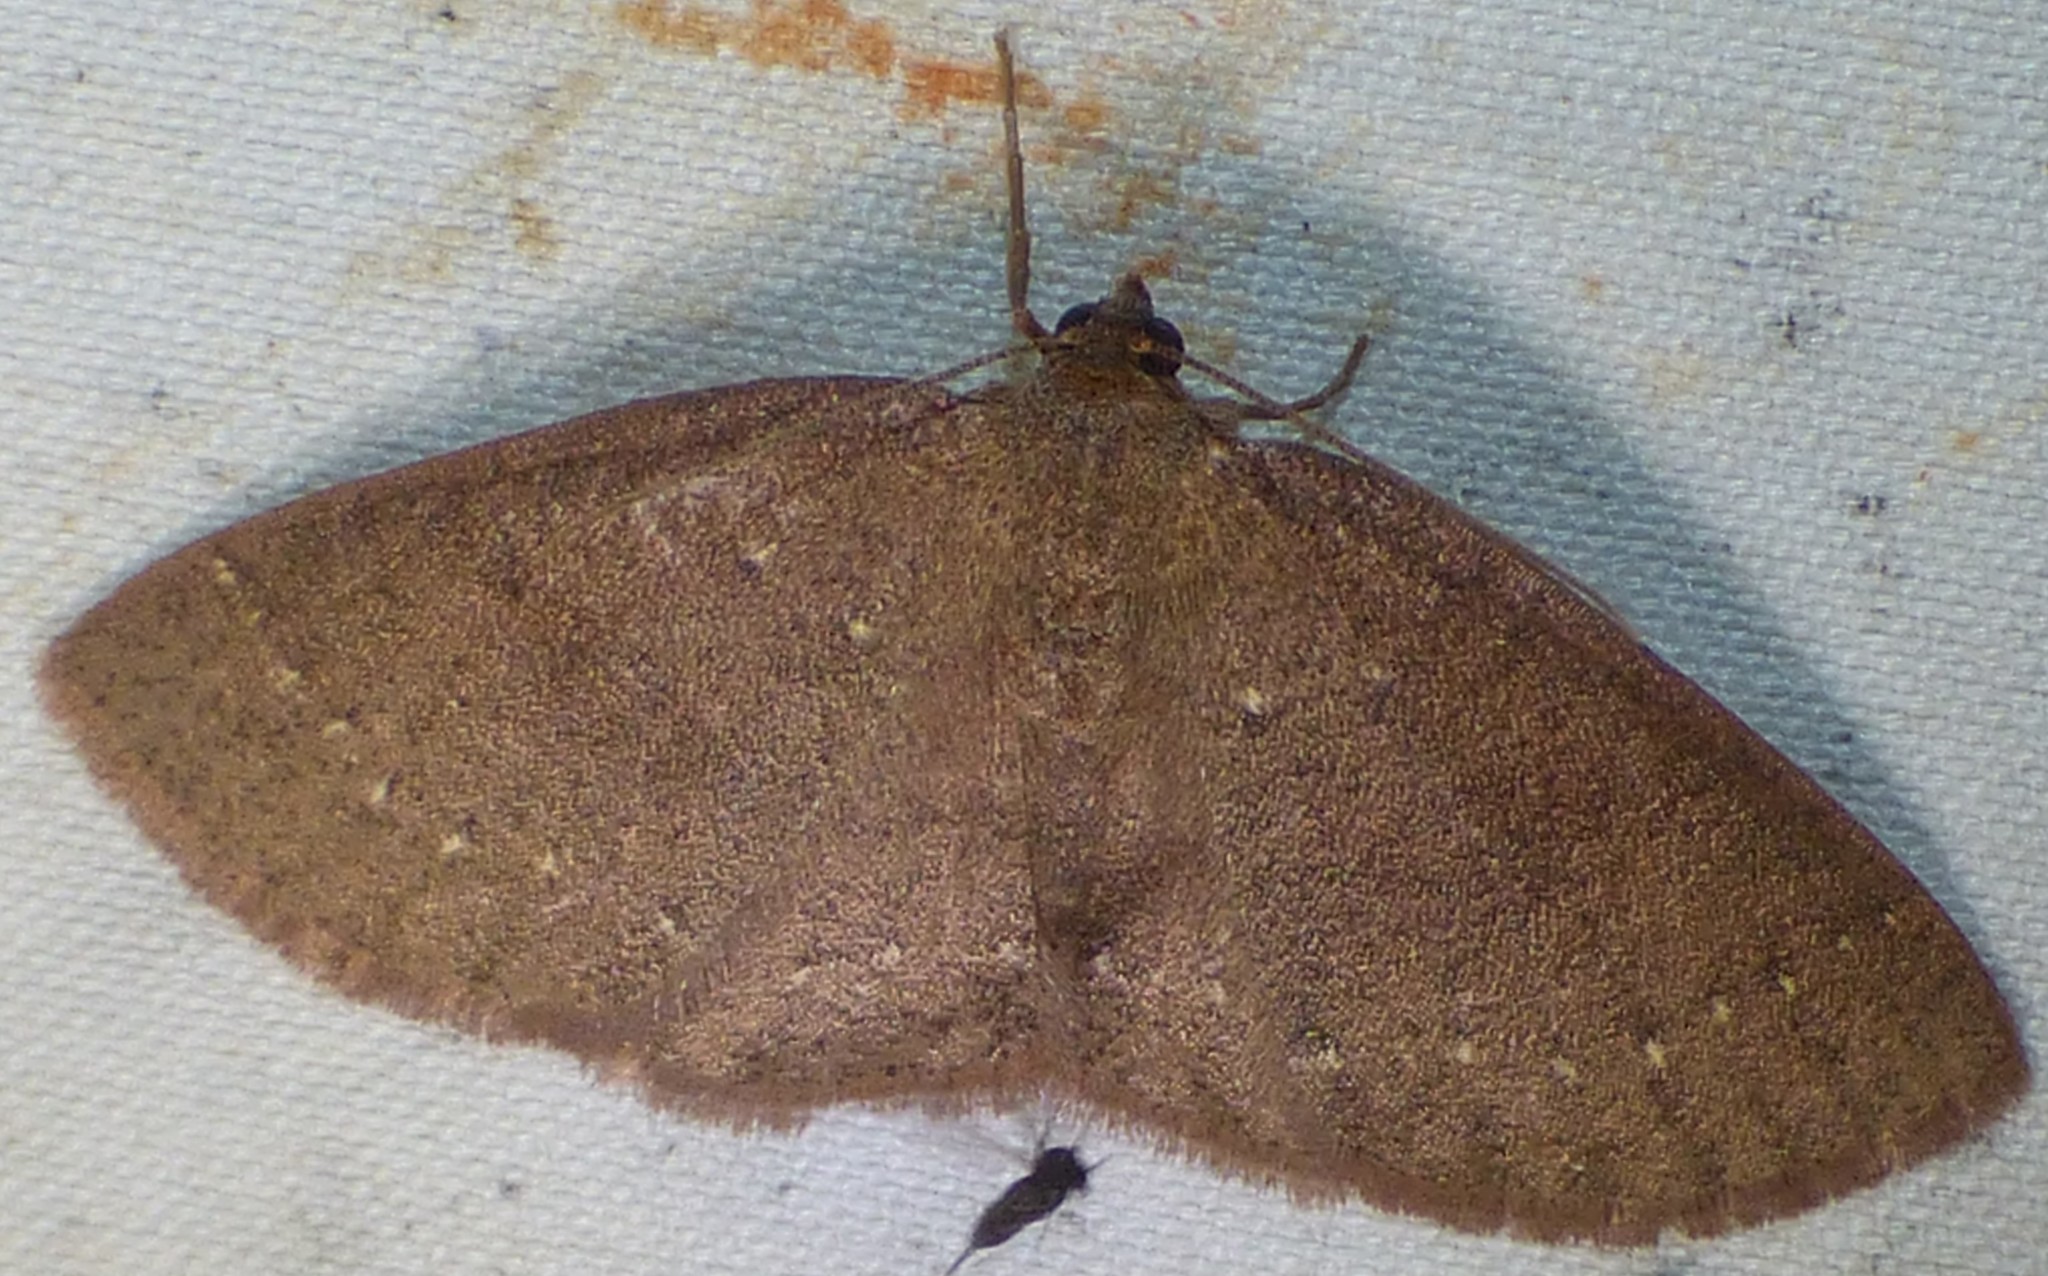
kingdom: Animalia
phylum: Arthropoda
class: Insecta
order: Lepidoptera
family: Geometridae
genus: Ilexia
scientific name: Ilexia intractata
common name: Black-dotted ruddy moth
